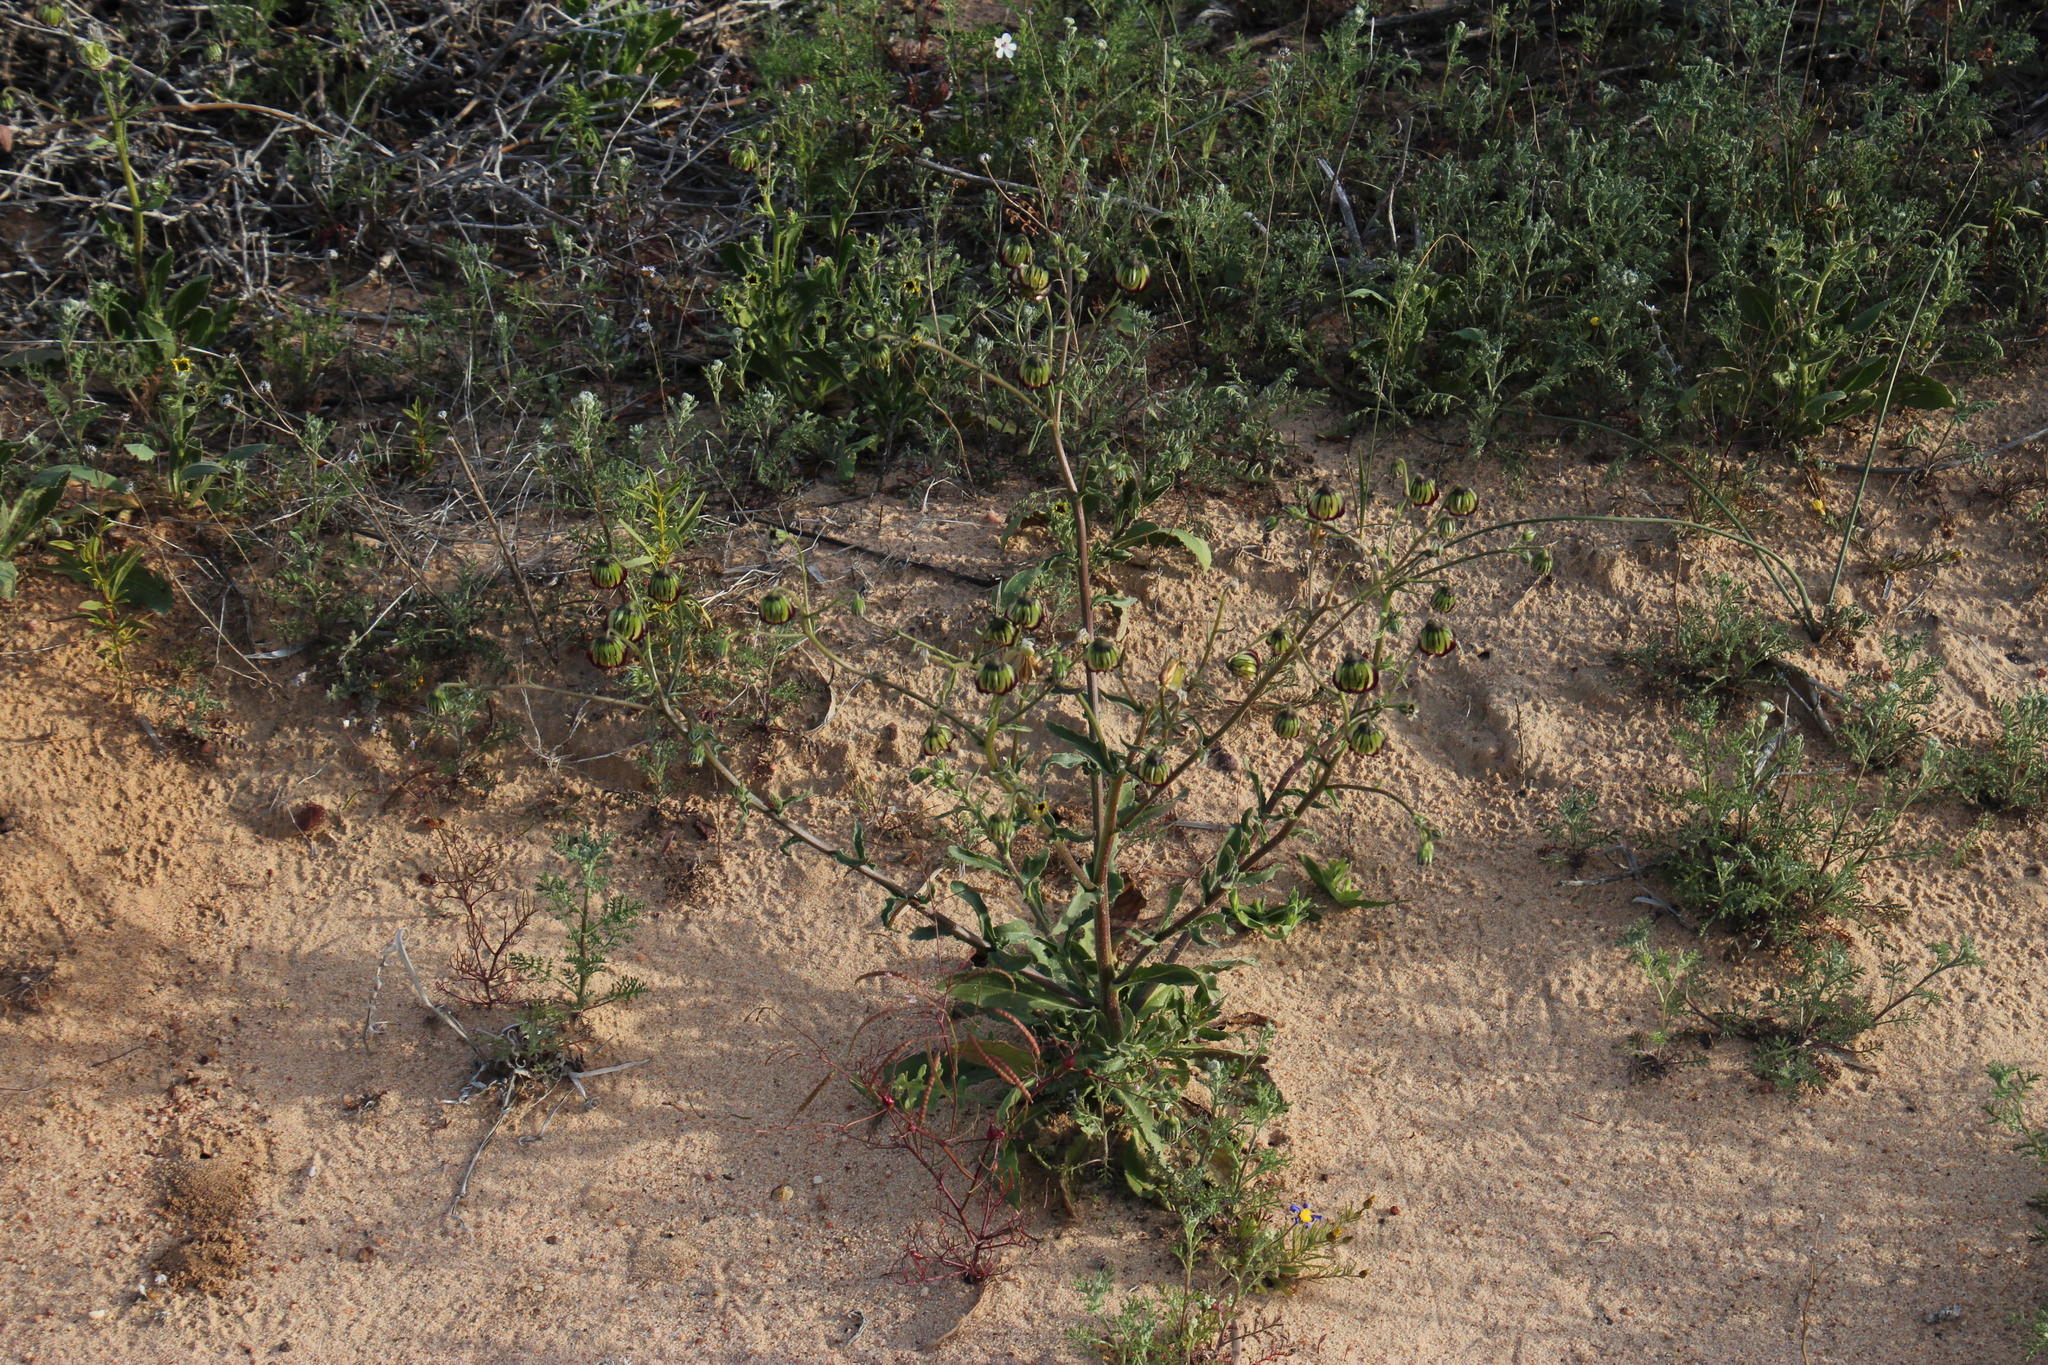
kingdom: Plantae
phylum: Tracheophyta
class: Magnoliopsida
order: Asterales
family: Asteraceae
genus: Osteospermum
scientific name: Osteospermum monstrosum
